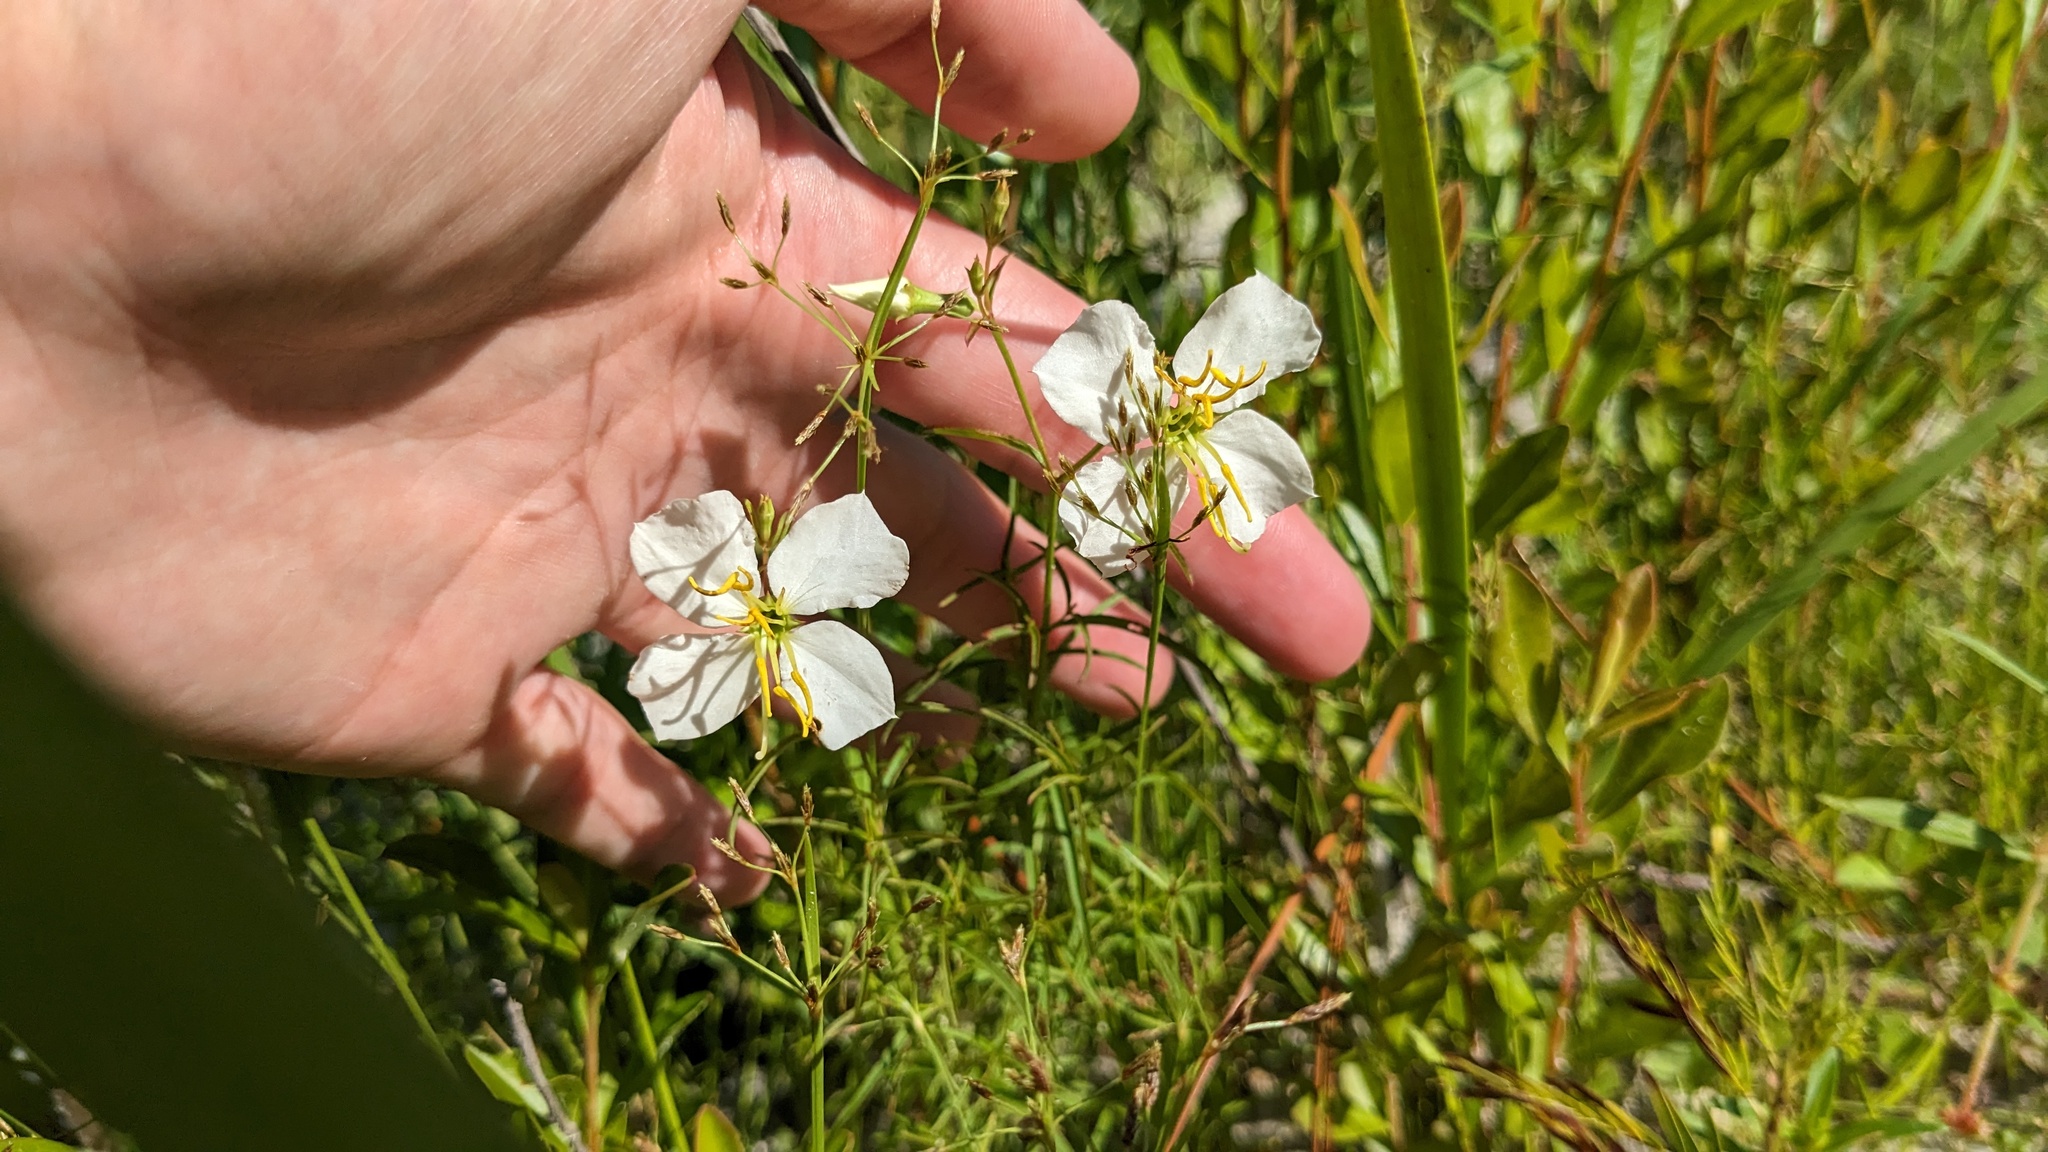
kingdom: Plantae
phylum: Tracheophyta
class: Magnoliopsida
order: Myrtales
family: Melastomataceae
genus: Rhexia
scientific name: Rhexia mariana
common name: Dull meadow-pitcher
